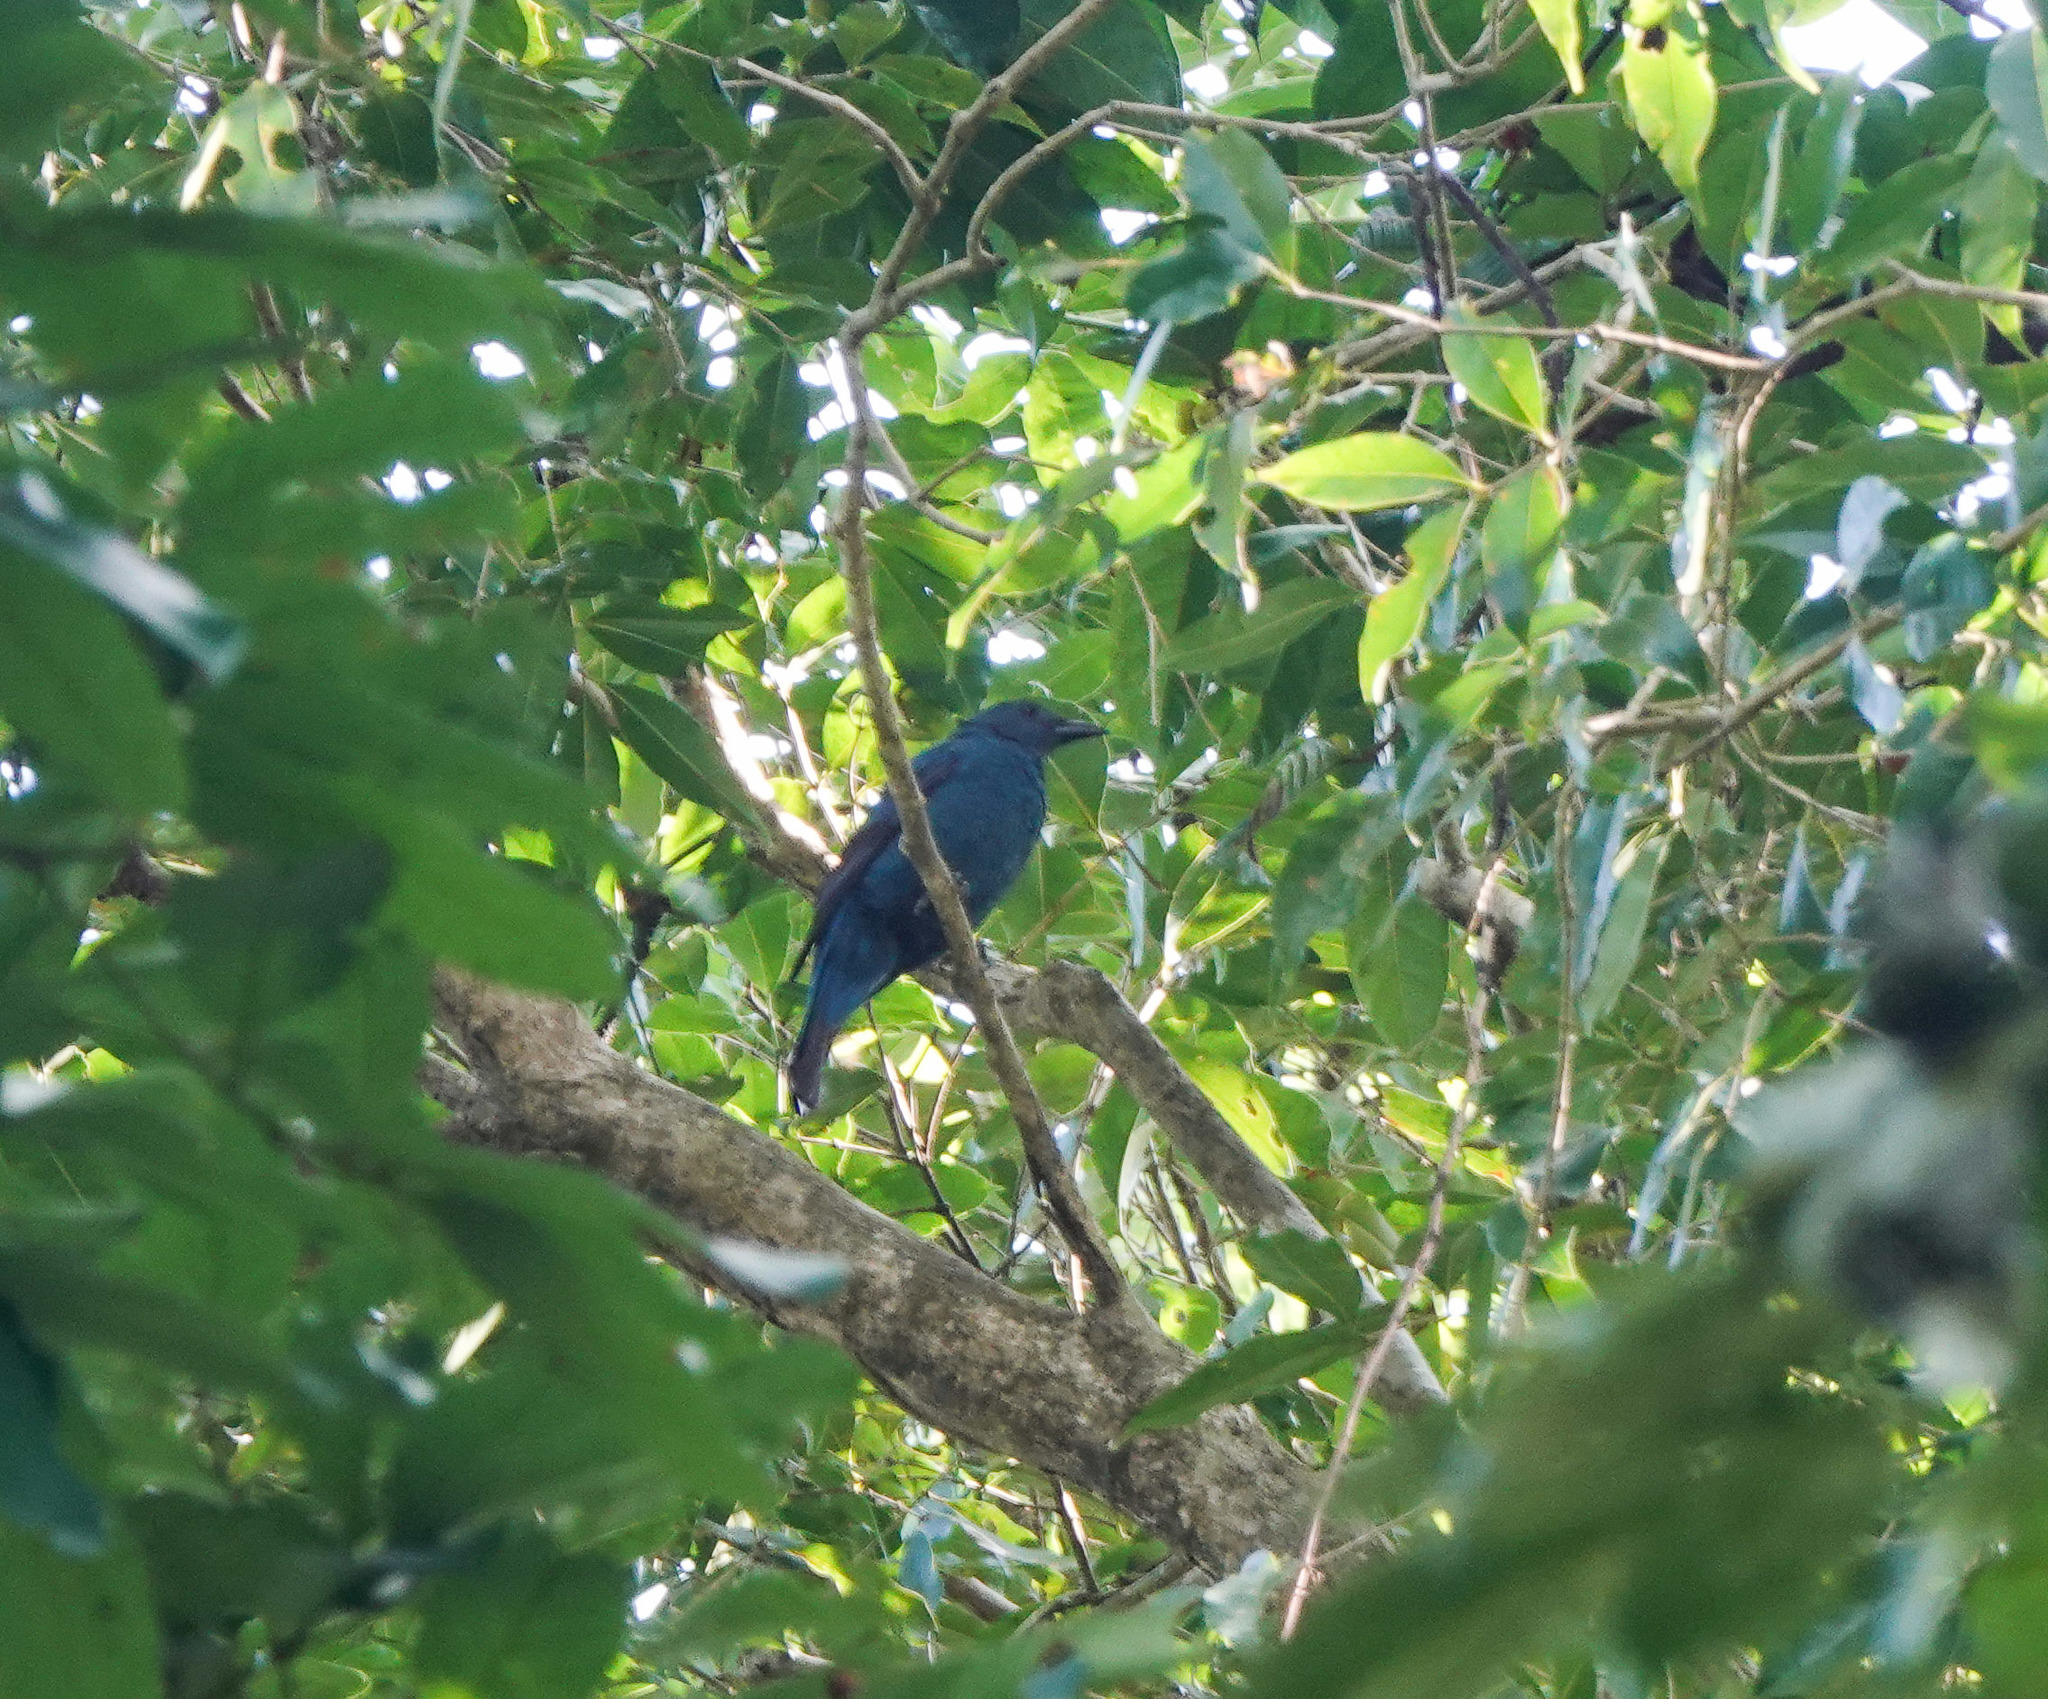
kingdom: Animalia
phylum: Chordata
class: Aves
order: Passeriformes
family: Irenidae
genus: Irena
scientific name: Irena puella
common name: Asian fairy-bluebird
